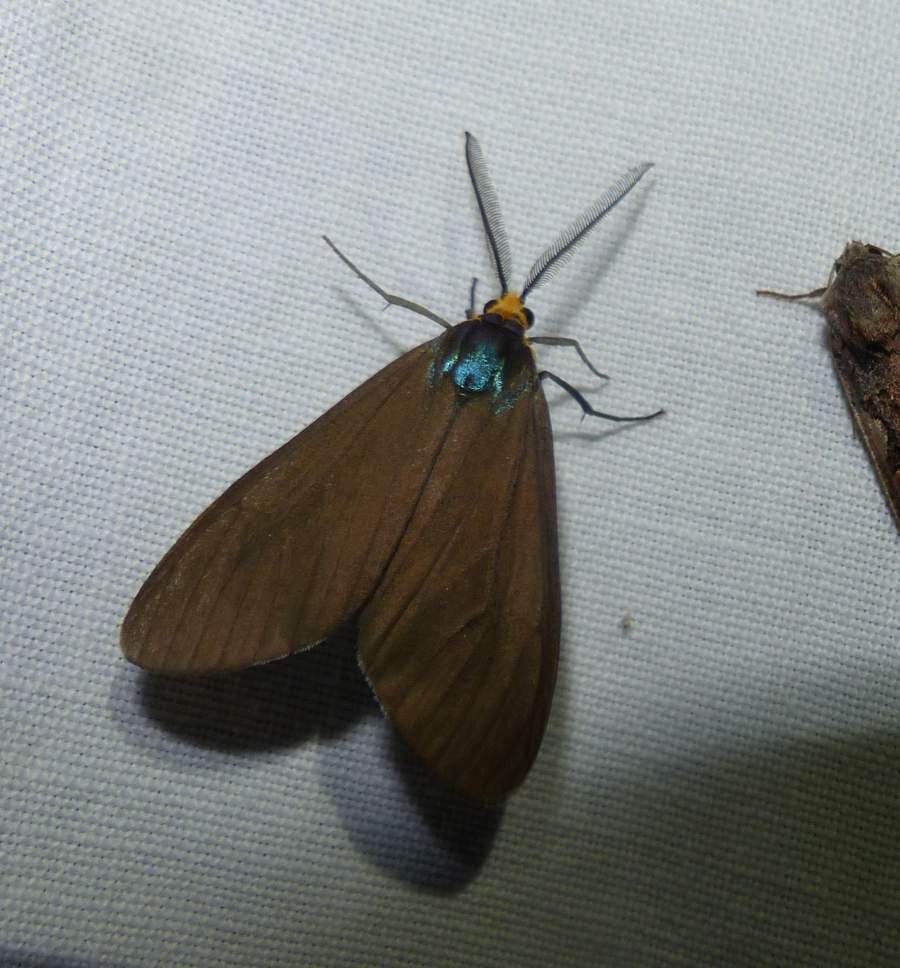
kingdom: Animalia
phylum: Arthropoda
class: Insecta
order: Lepidoptera
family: Erebidae
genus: Ctenucha
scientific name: Ctenucha virginica
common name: Virginia ctenucha moth
